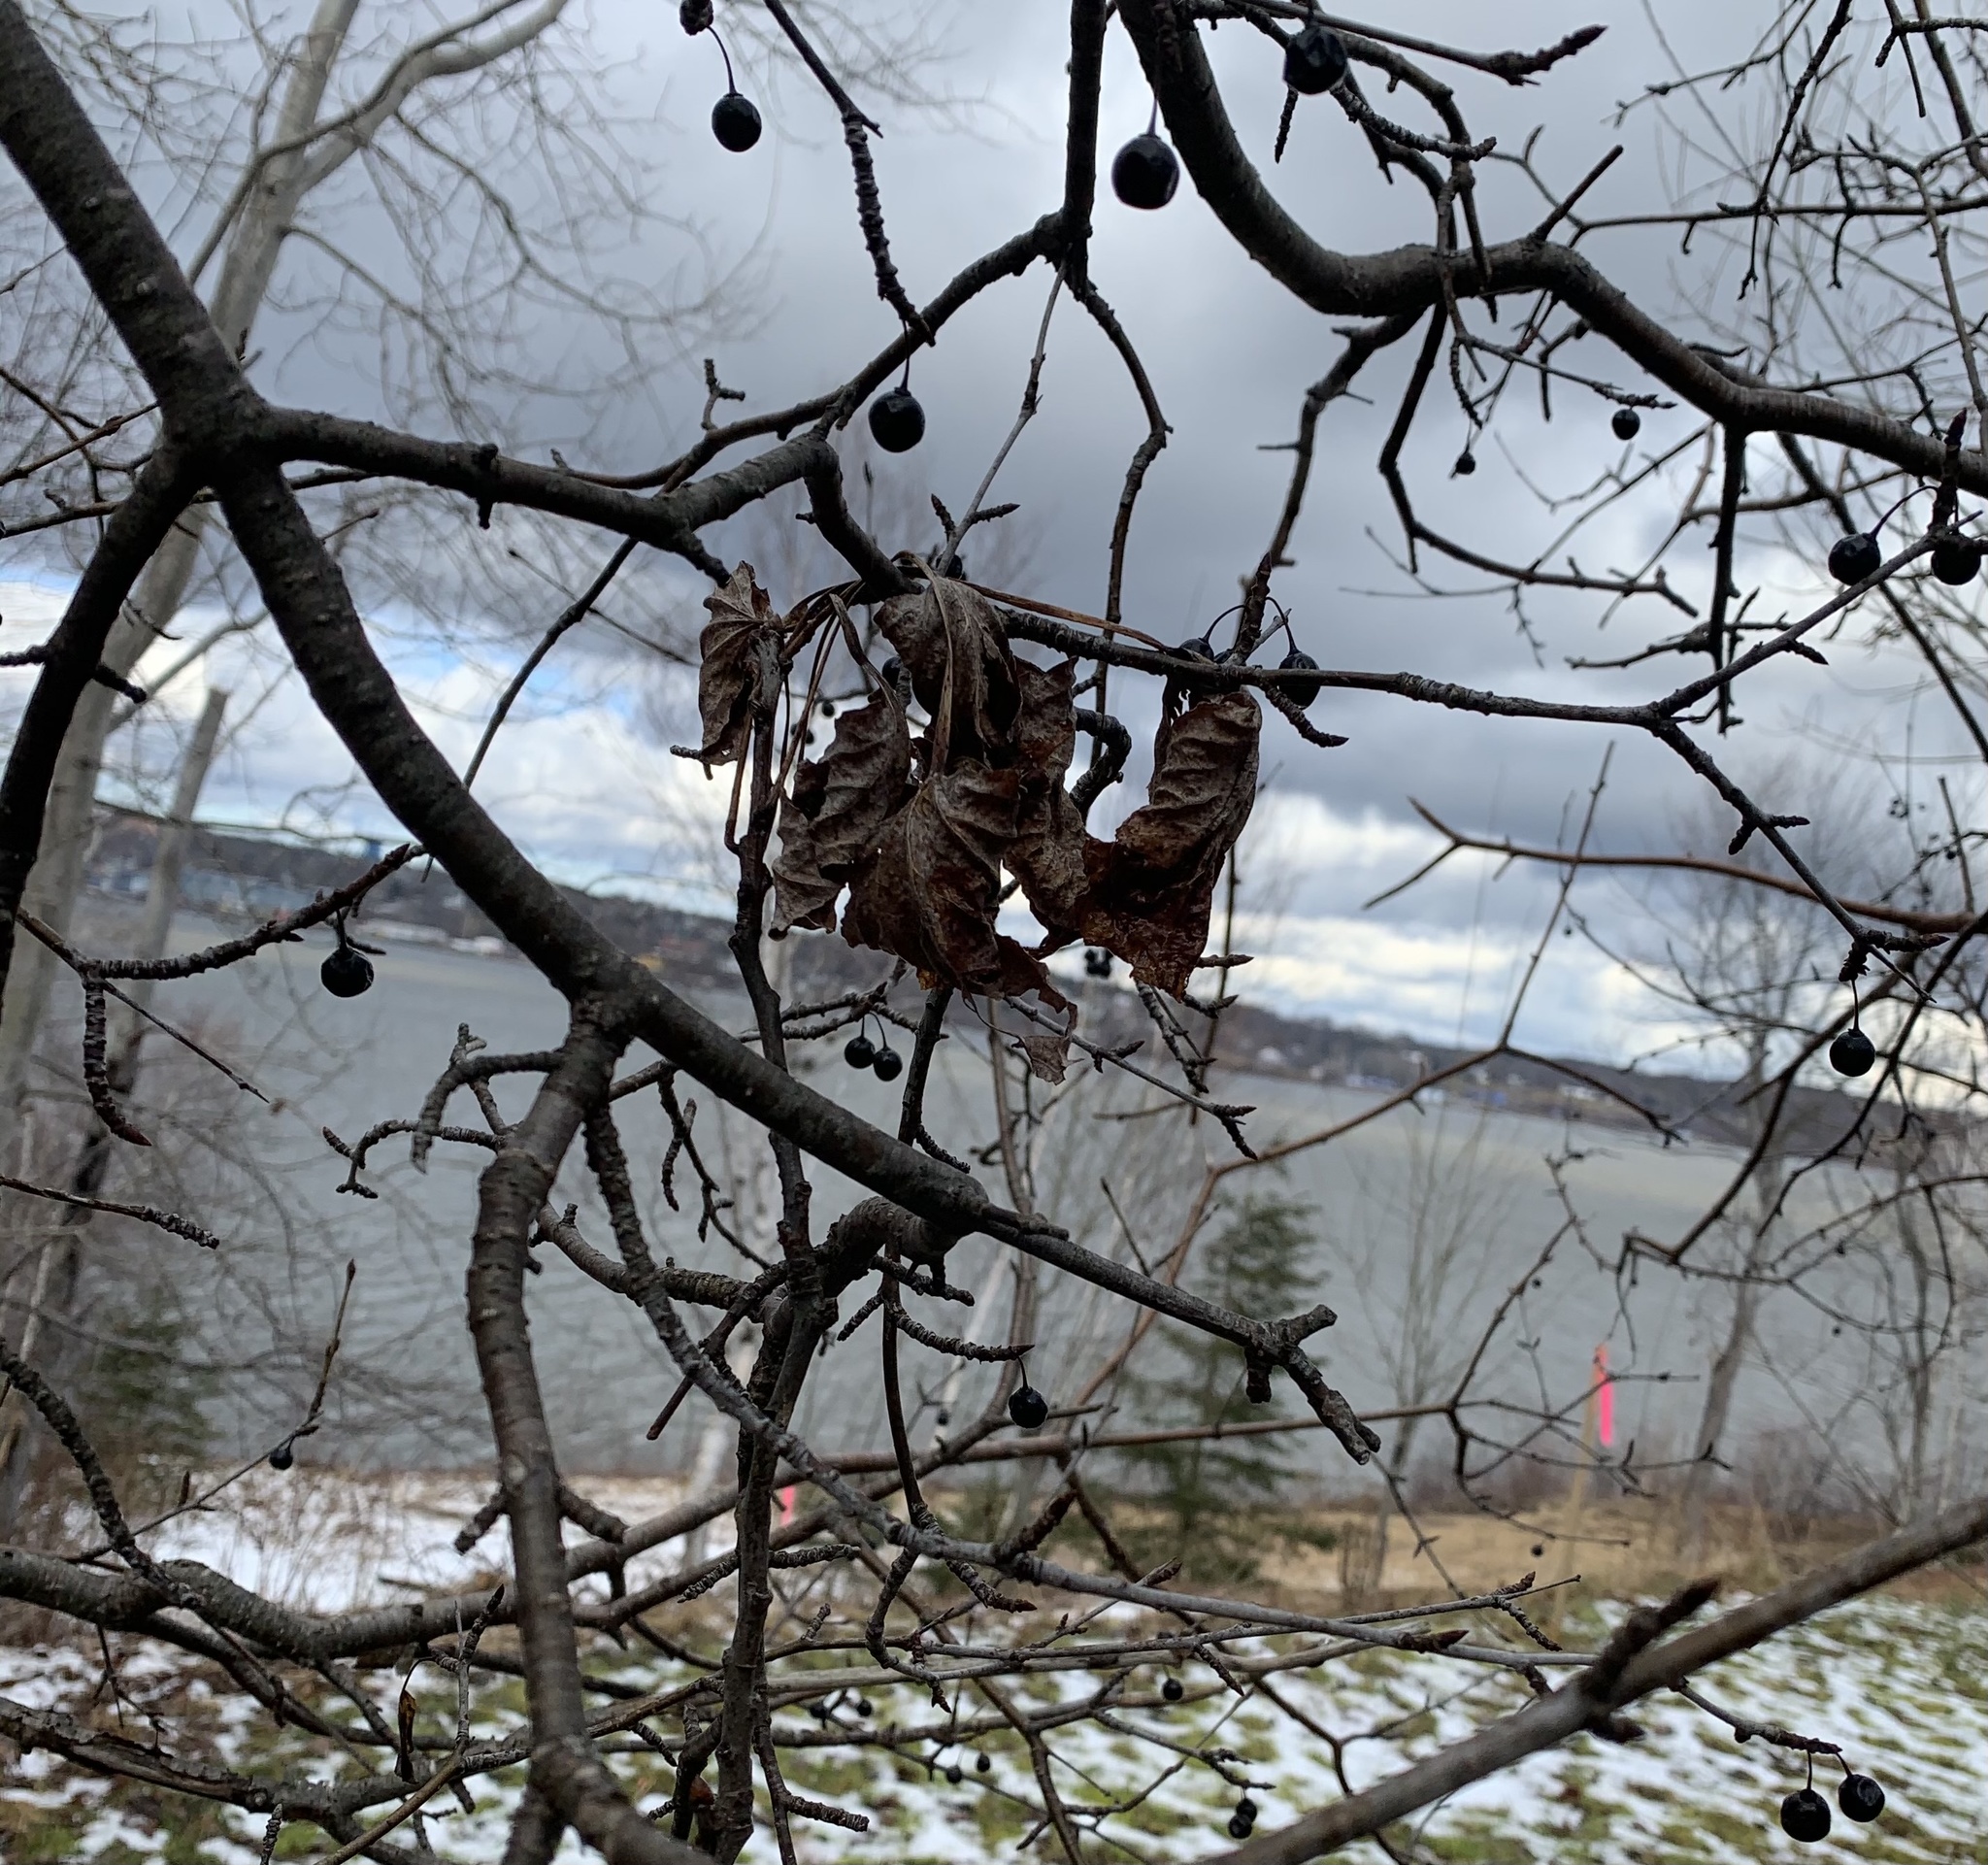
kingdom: Plantae
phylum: Tracheophyta
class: Magnoliopsida
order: Rosales
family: Rhamnaceae
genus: Rhamnus
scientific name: Rhamnus cathartica
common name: Common buckthorn
